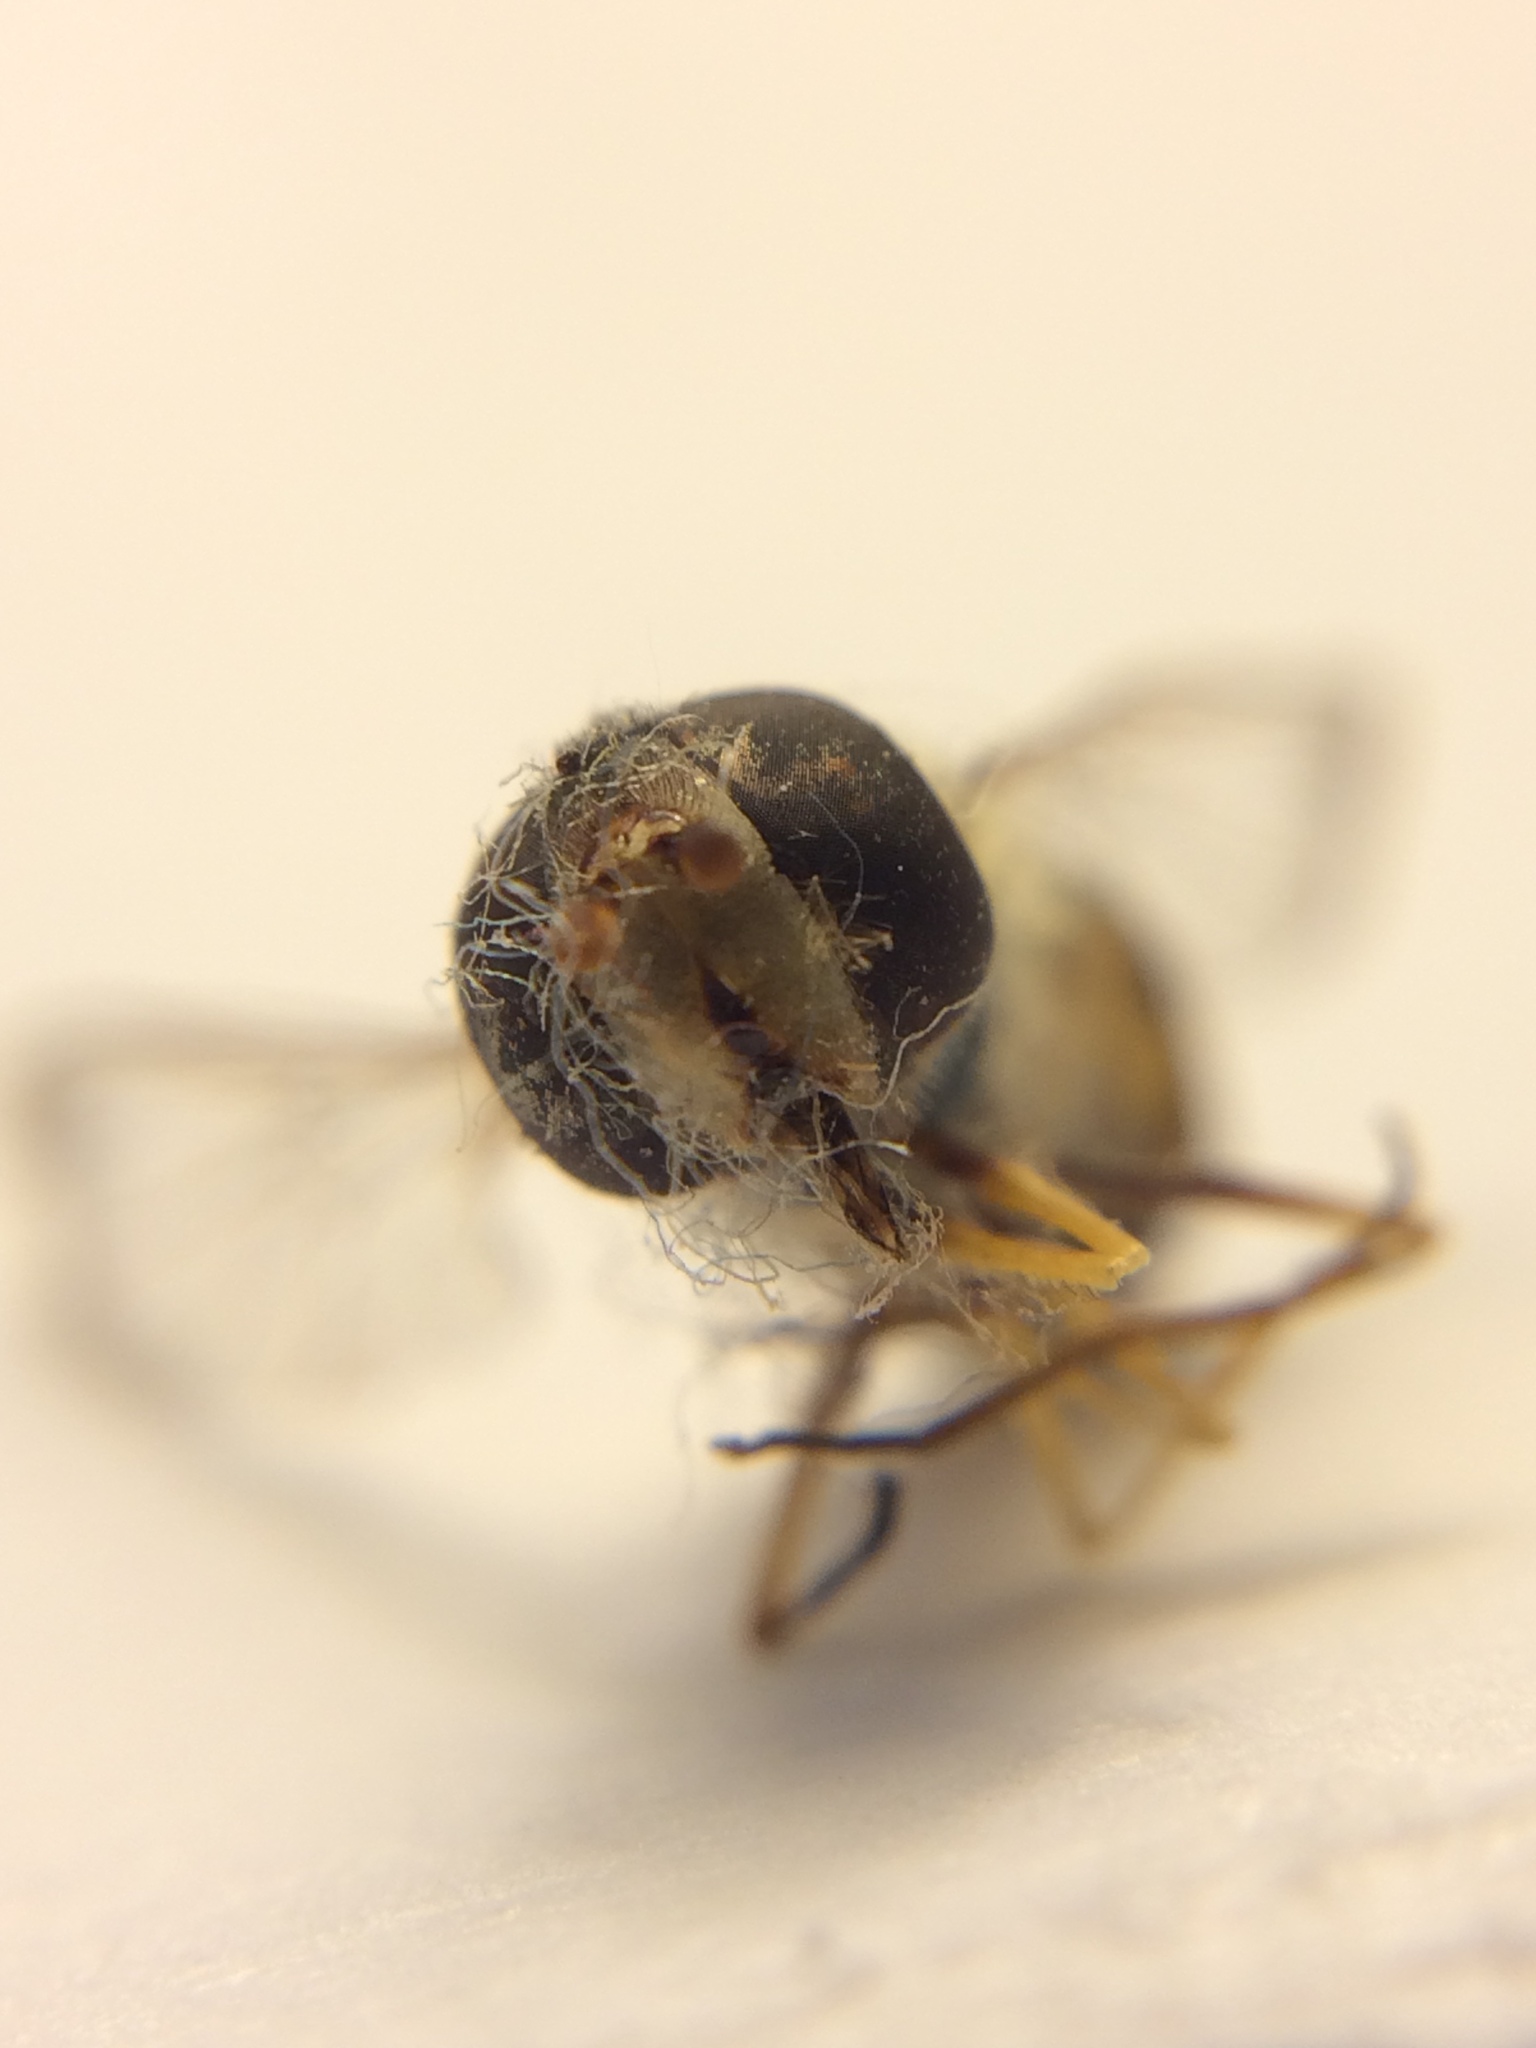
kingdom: Animalia
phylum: Arthropoda
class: Insecta
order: Diptera
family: Syrphidae
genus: Lapposyrphus
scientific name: Lapposyrphus lapponicus
